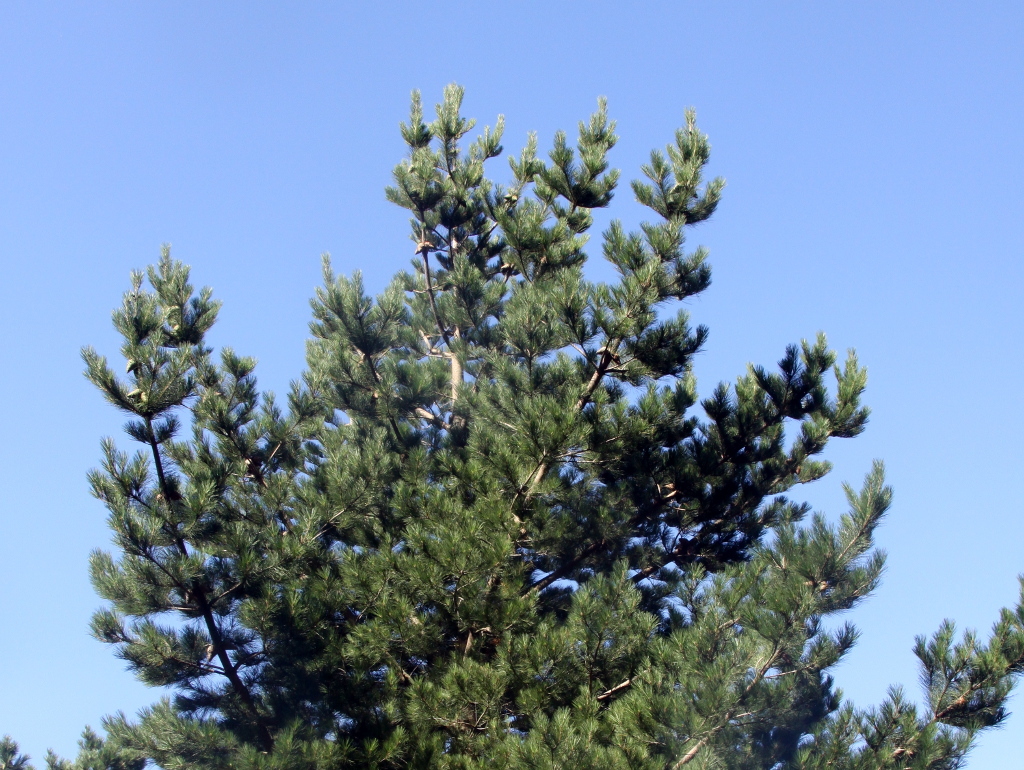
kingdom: Plantae
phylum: Tracheophyta
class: Pinopsida
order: Pinales
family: Pinaceae
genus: Pinus
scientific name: Pinus radiata
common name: Monterey pine
